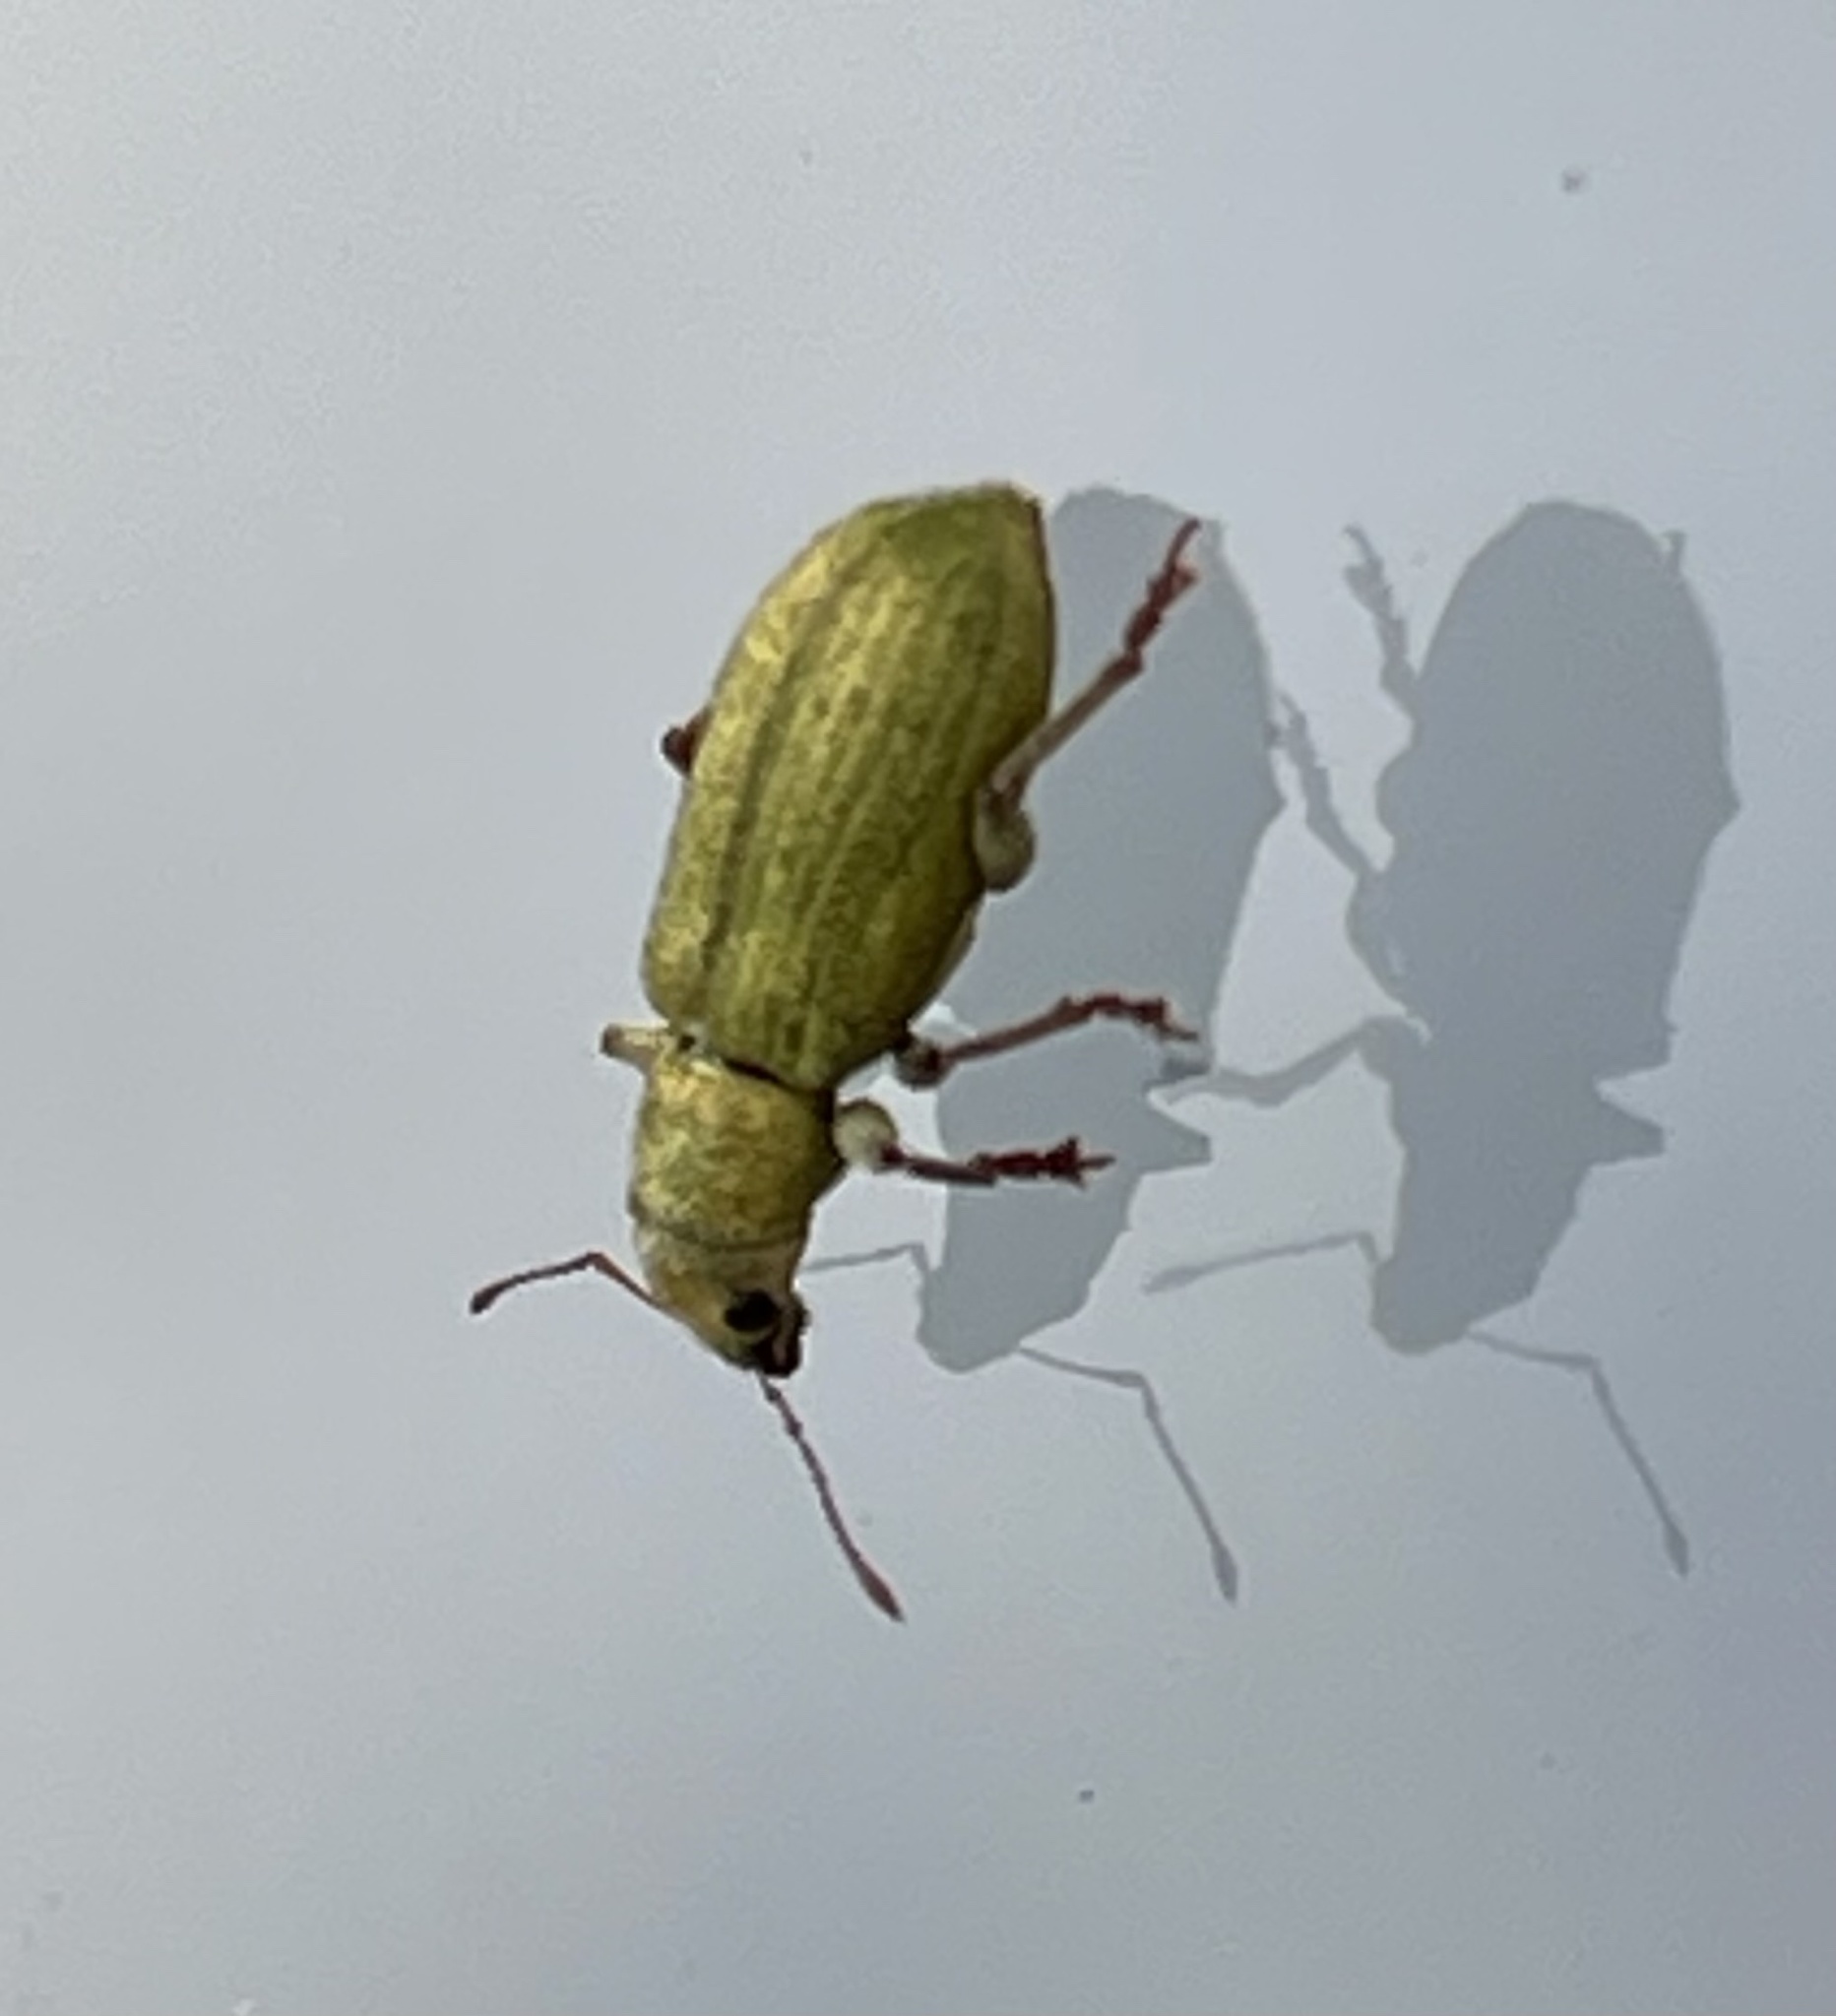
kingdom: Animalia
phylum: Arthropoda
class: Insecta
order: Coleoptera
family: Curculionidae
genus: Pachyrhinus
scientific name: Pachyrhinus lethierryi
